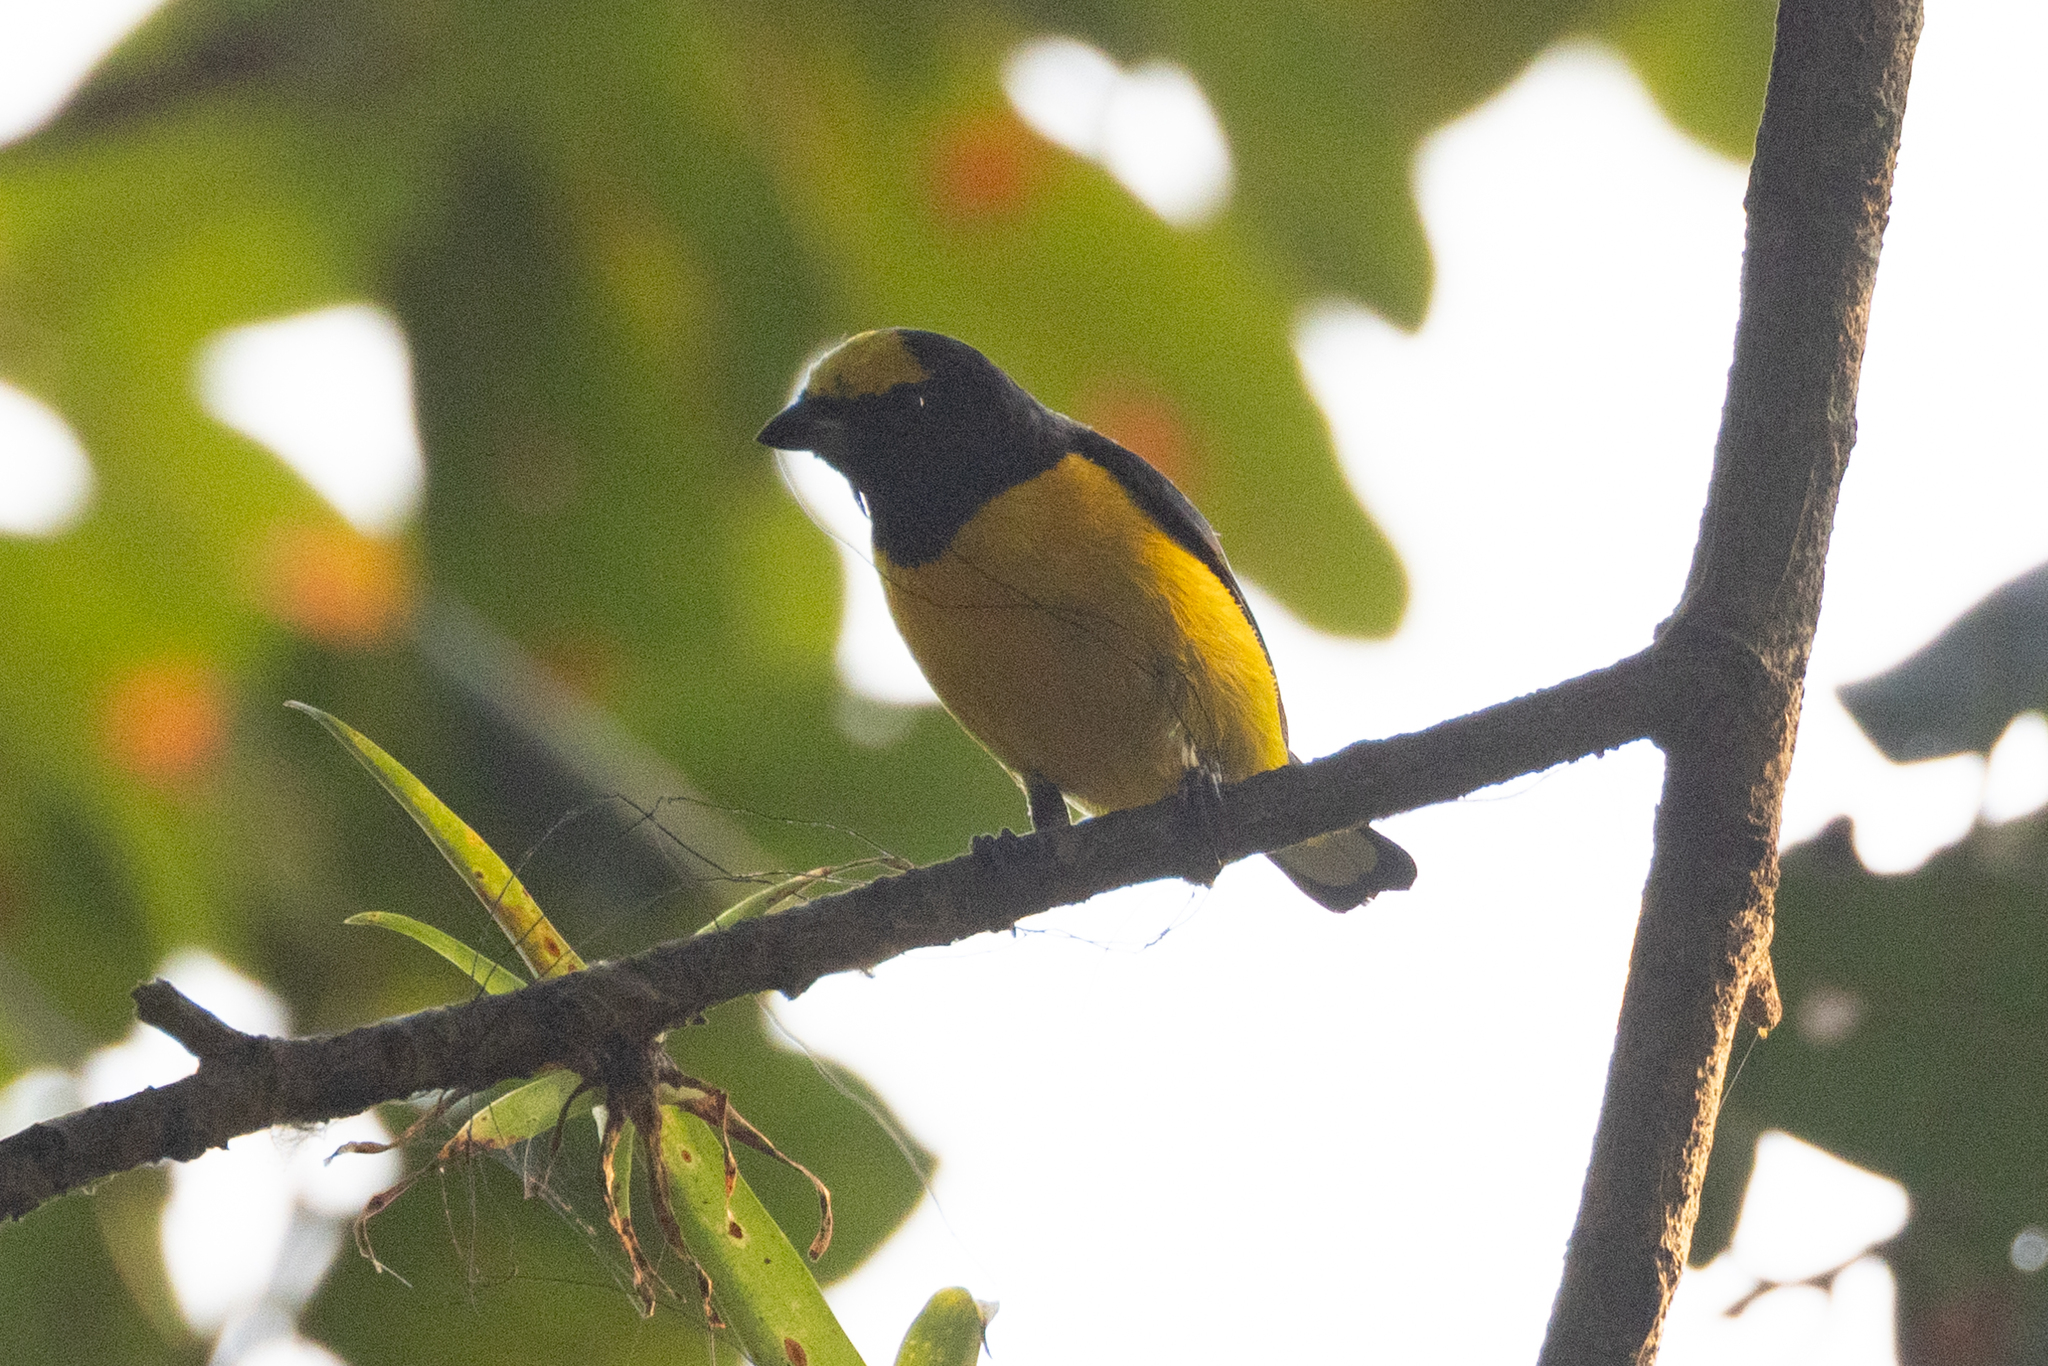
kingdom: Animalia
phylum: Chordata
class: Aves
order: Passeriformes
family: Fringillidae
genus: Euphonia
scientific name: Euphonia affinis
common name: Scrub euphonia
